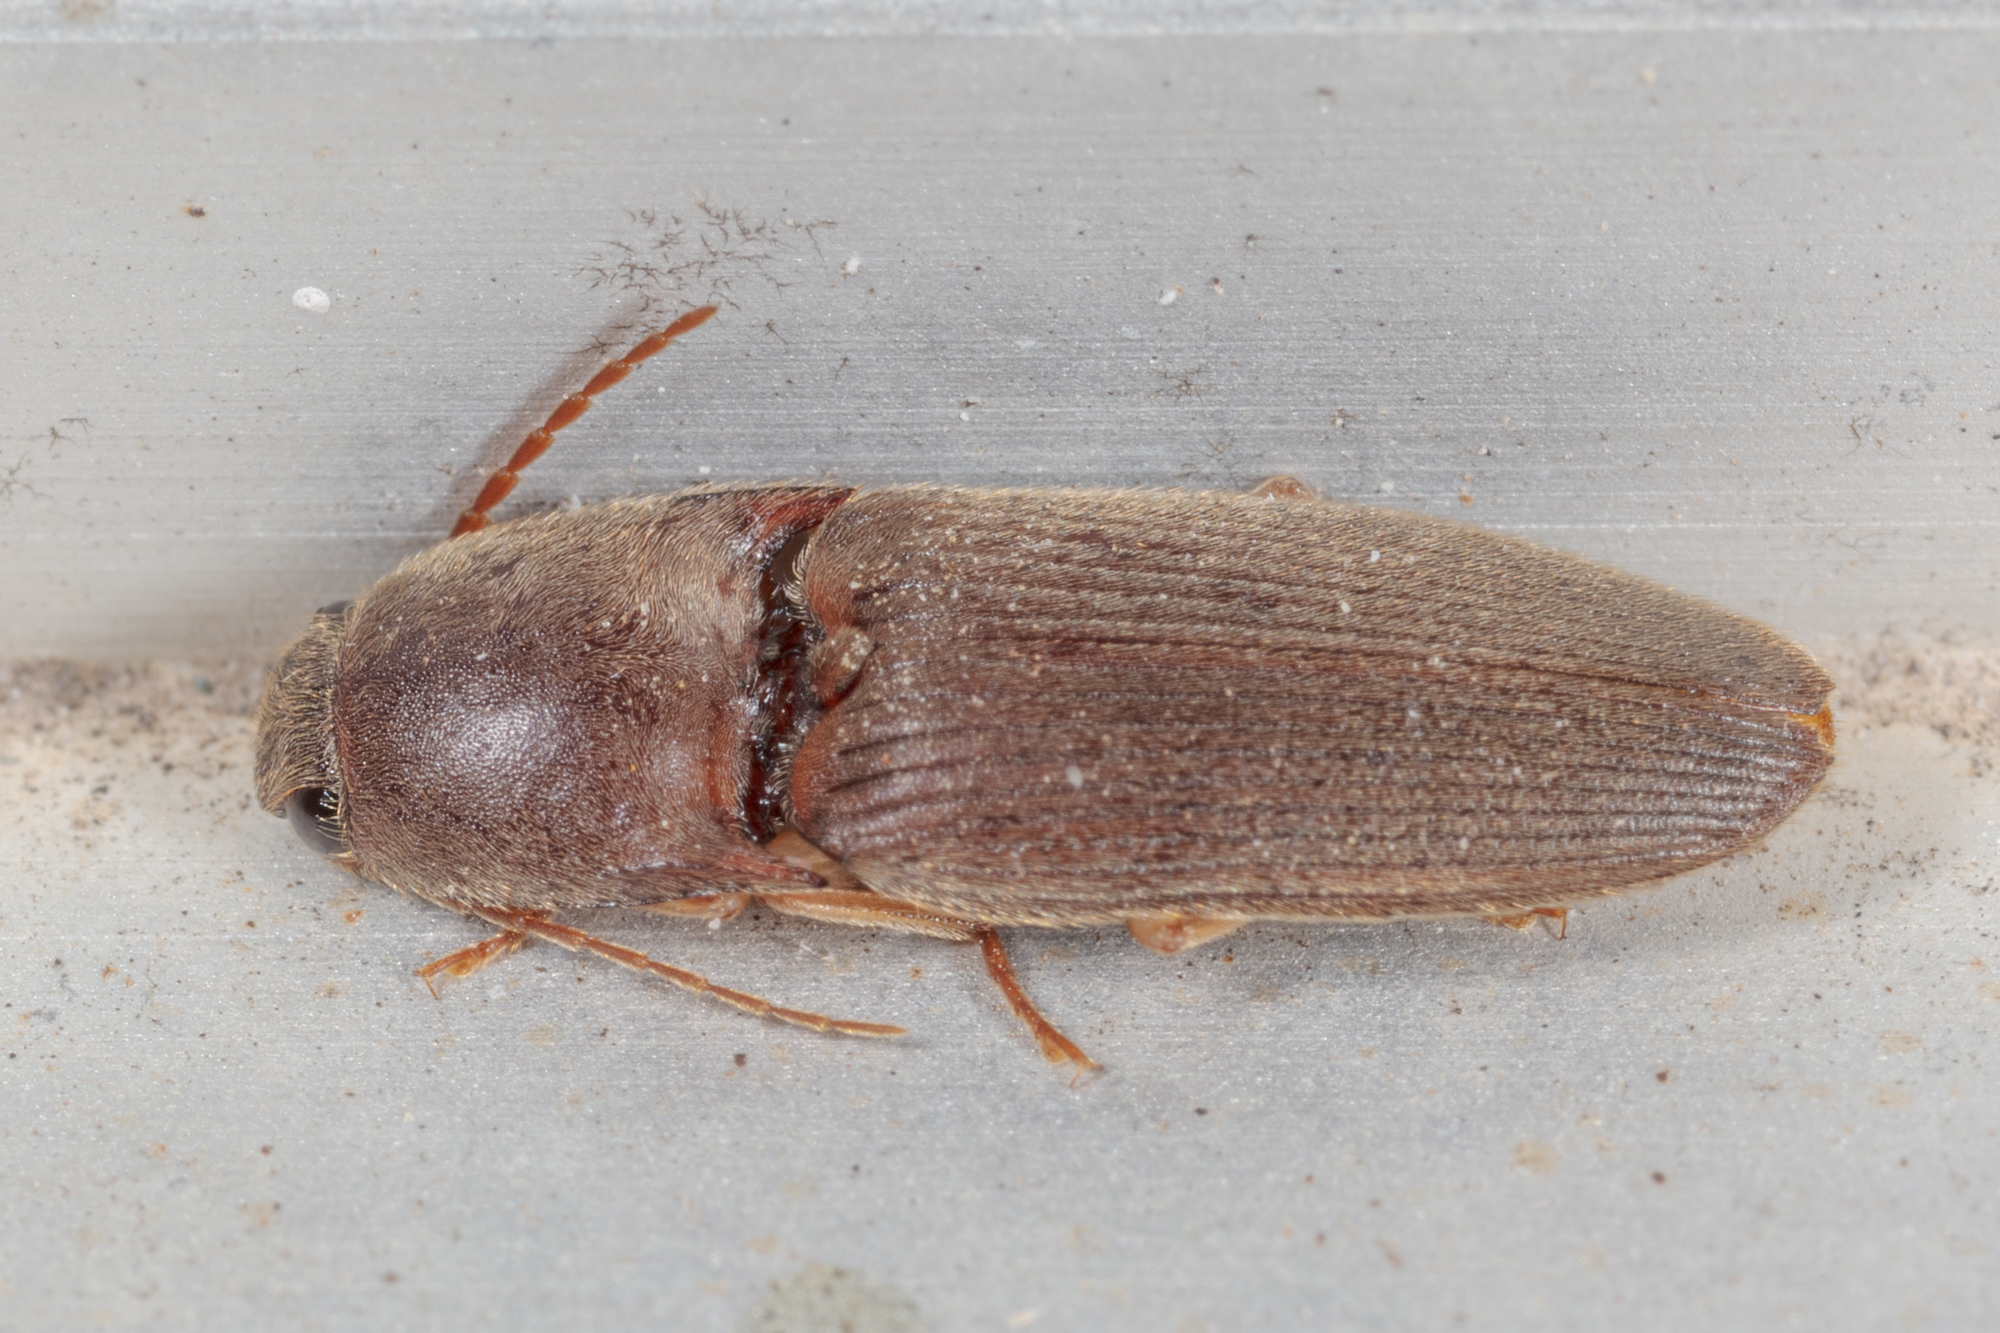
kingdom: Animalia
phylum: Arthropoda
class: Insecta
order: Coleoptera
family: Elateridae
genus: Conoderus
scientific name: Conoderus exsul
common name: Click beetle
